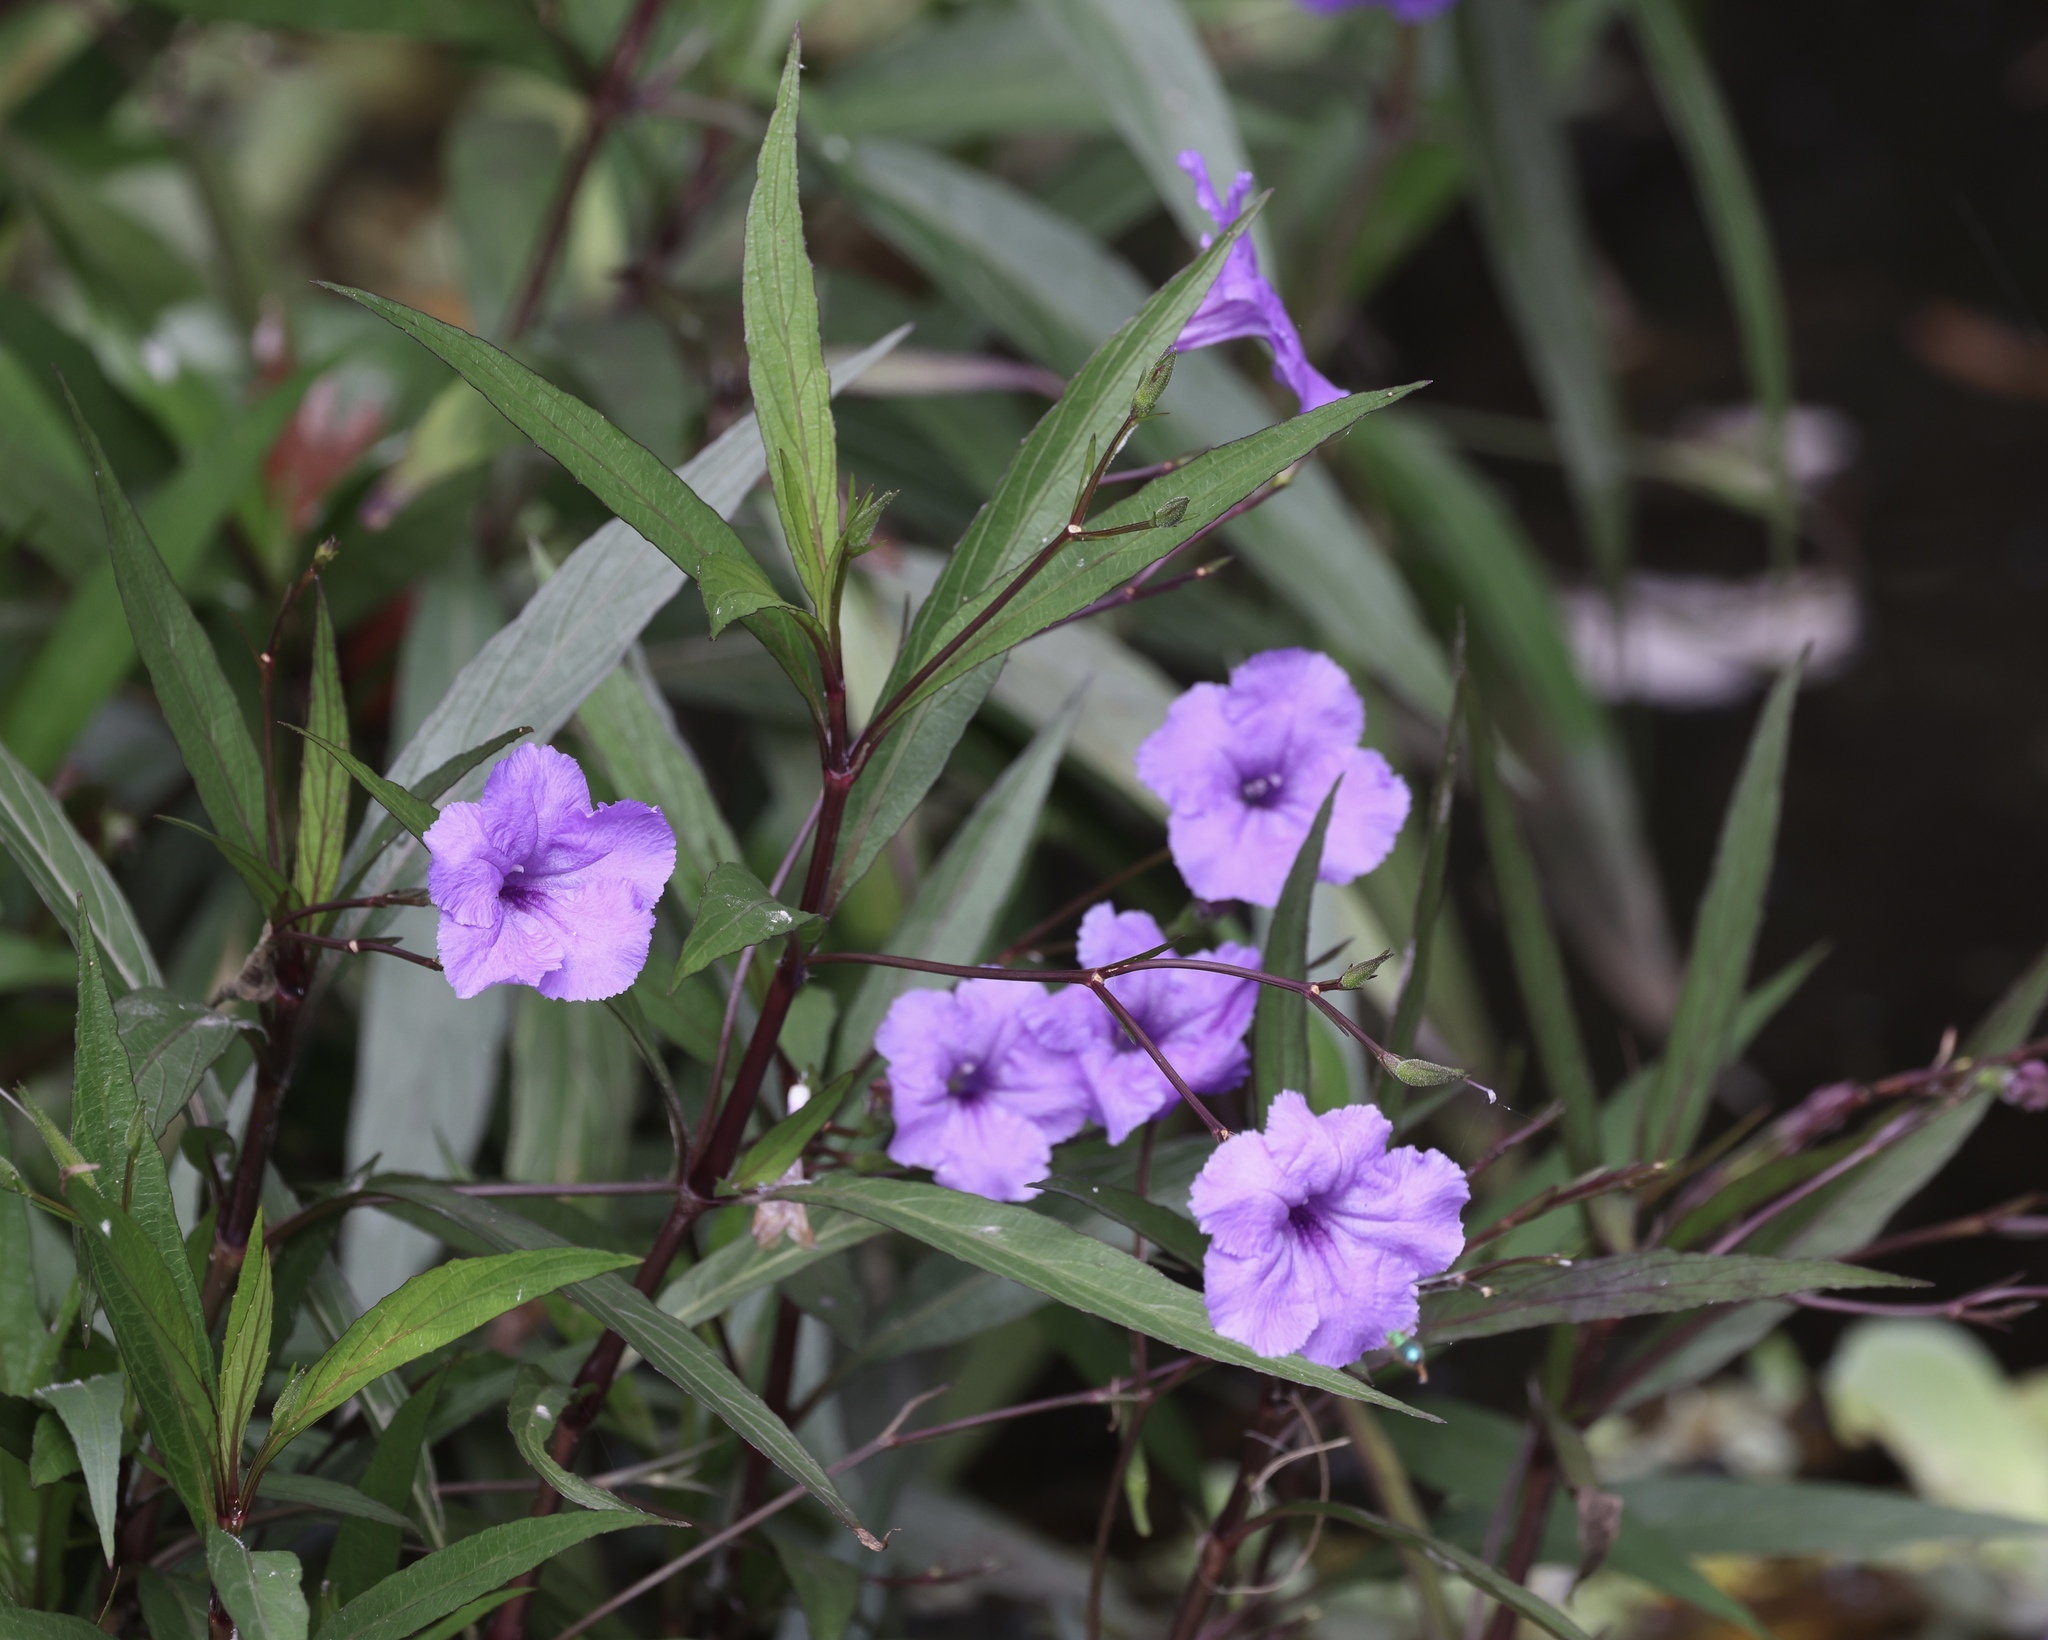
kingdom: Plantae
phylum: Tracheophyta
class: Magnoliopsida
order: Lamiales
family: Acanthaceae
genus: Ruellia
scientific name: Ruellia simplex
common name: Softseed wild petunia
